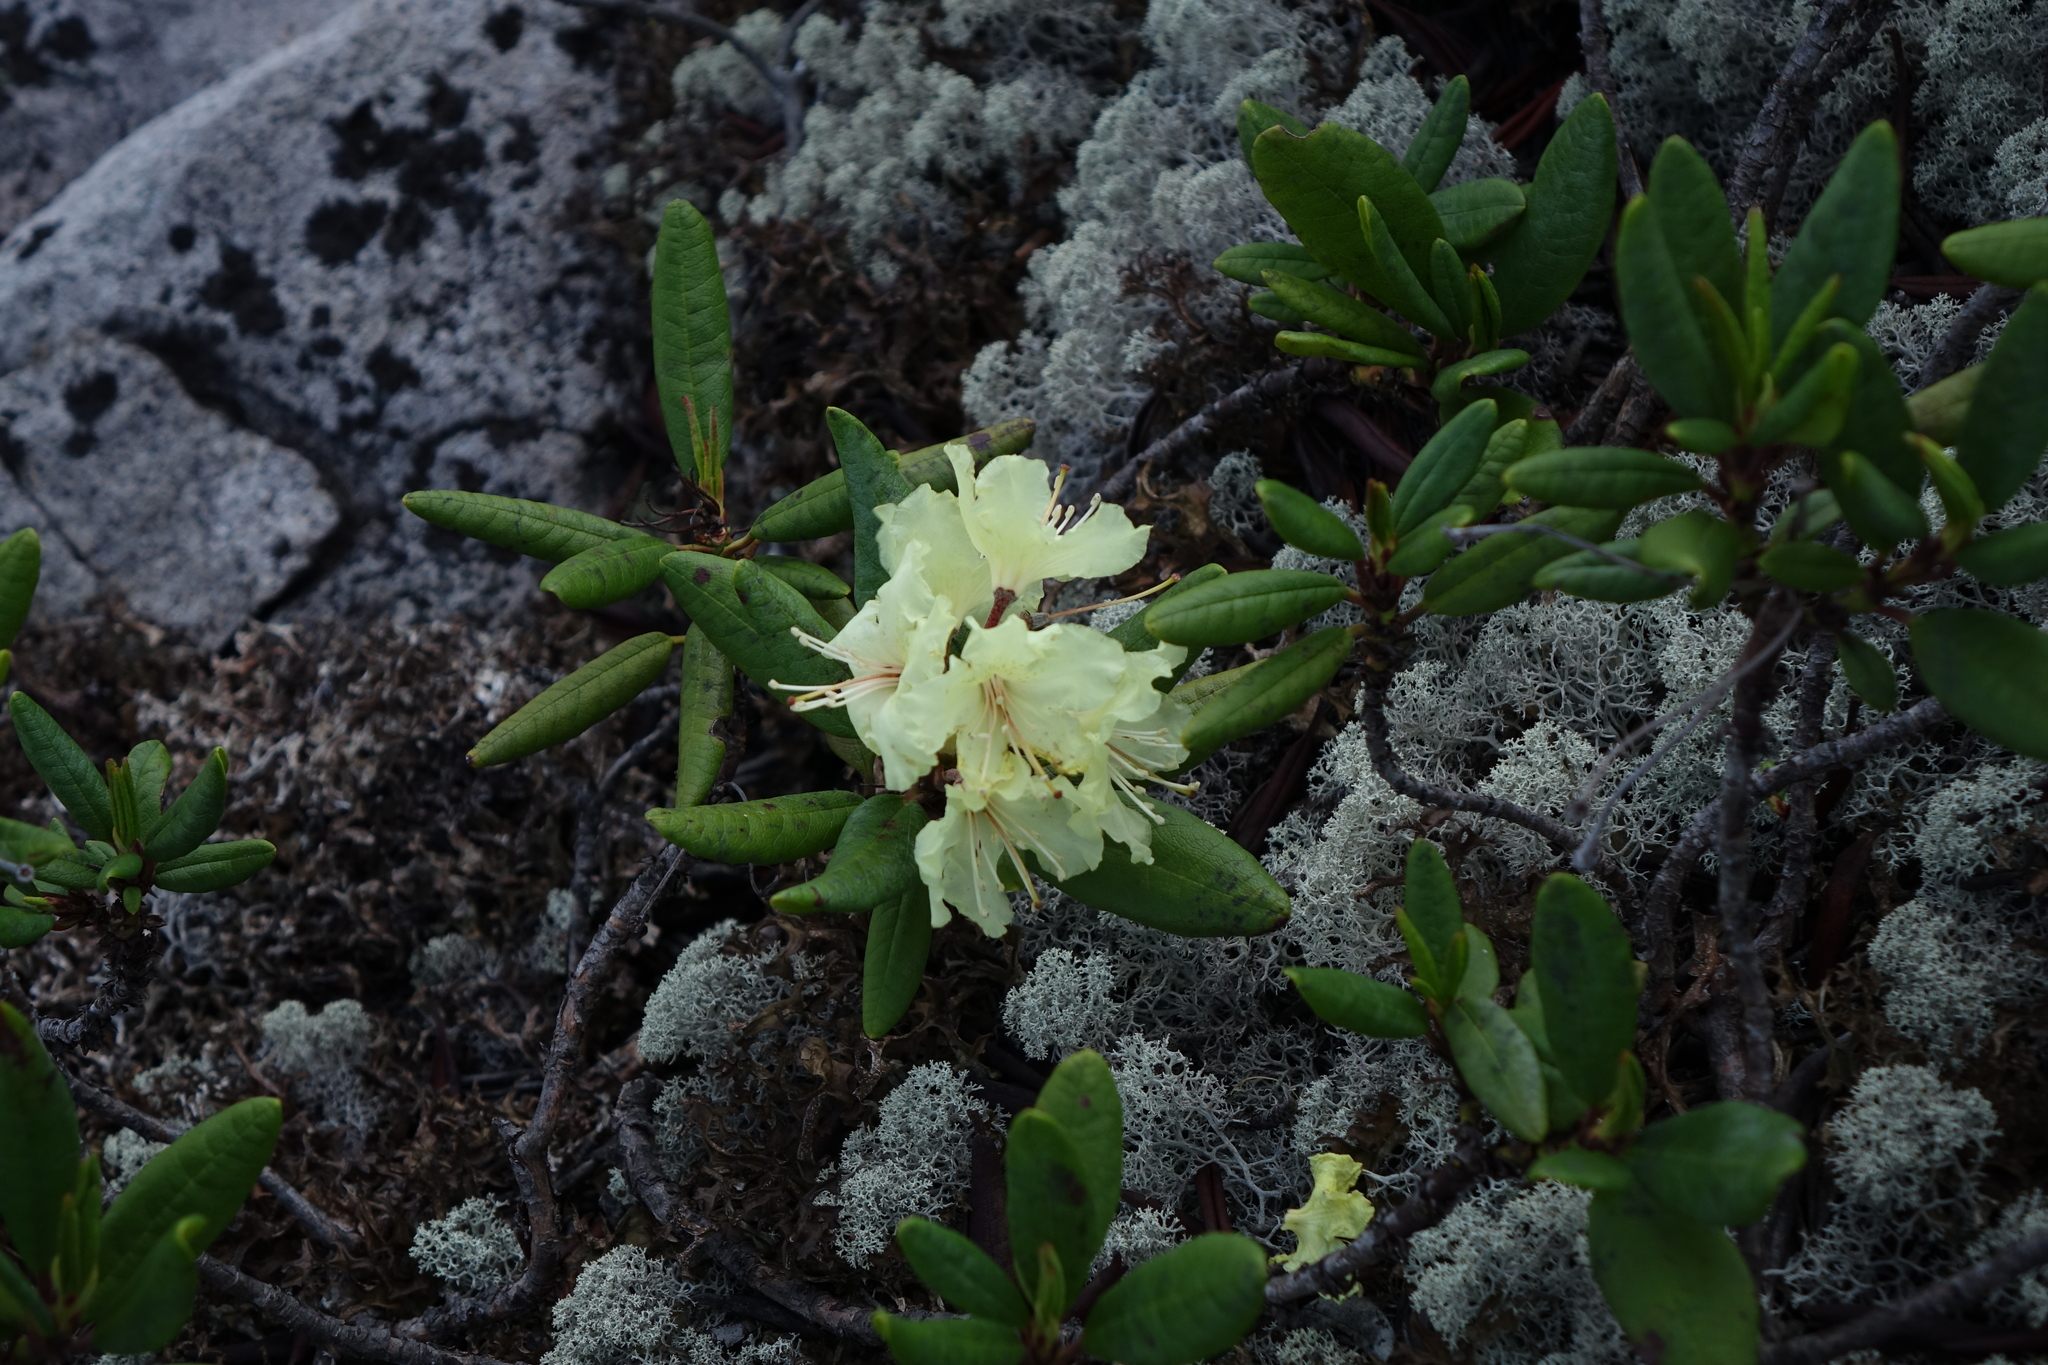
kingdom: Plantae
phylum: Tracheophyta
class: Magnoliopsida
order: Ericales
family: Ericaceae
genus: Rhododendron
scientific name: Rhododendron aureum
